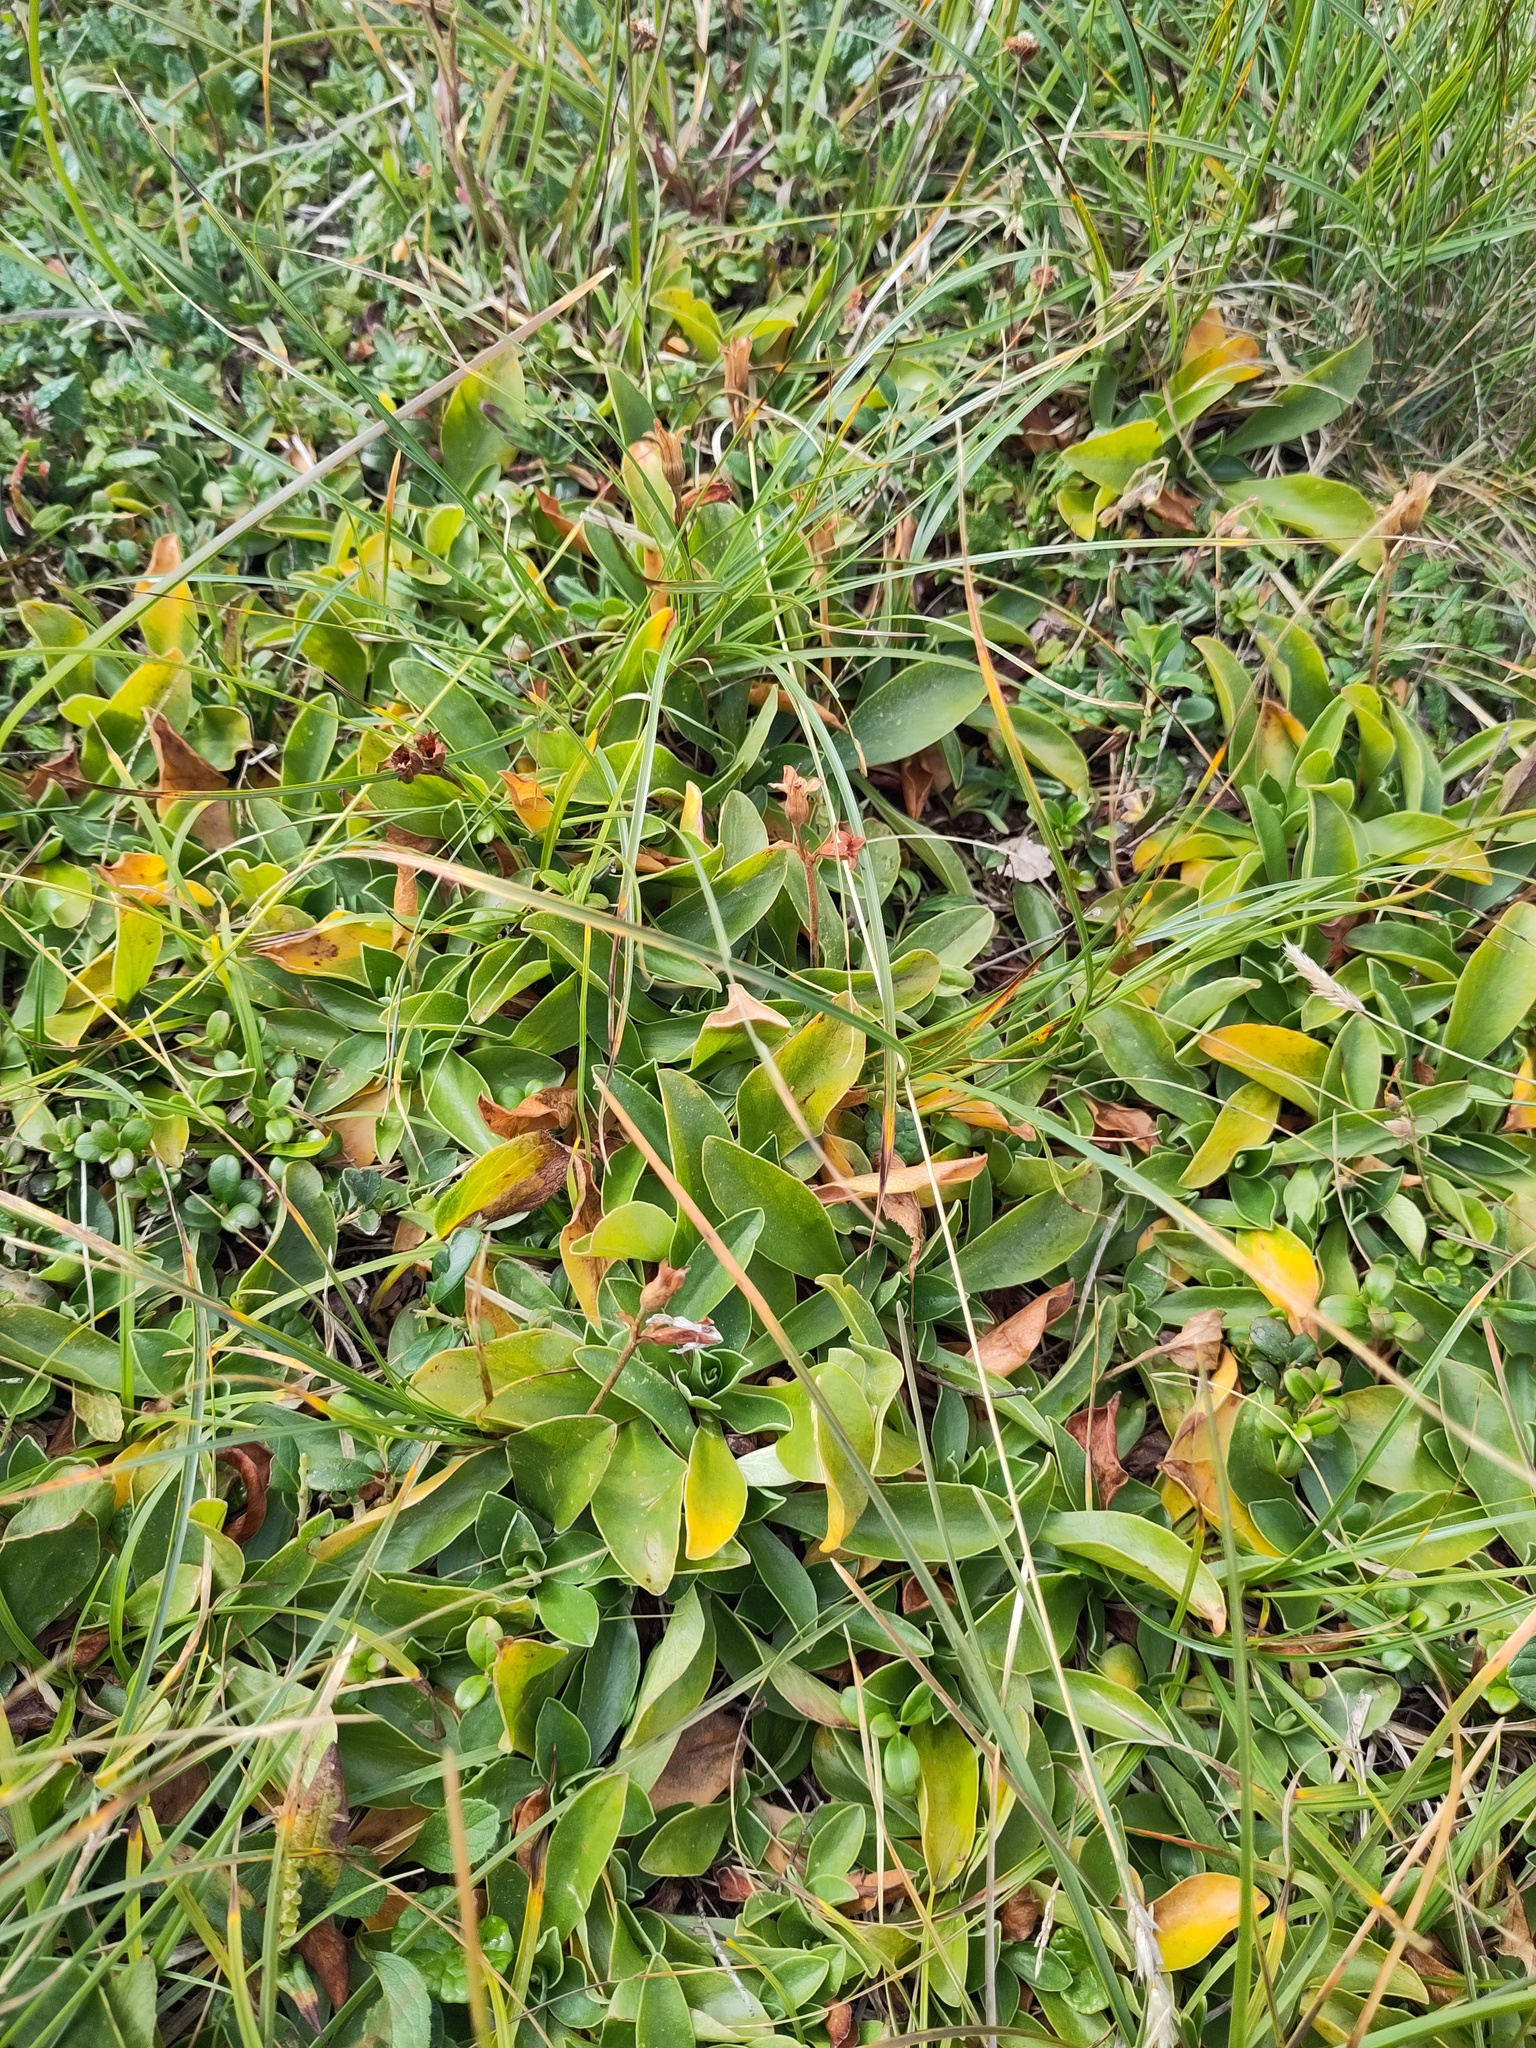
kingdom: Plantae
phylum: Tracheophyta
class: Magnoliopsida
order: Ericales
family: Primulaceae
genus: Primula
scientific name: Primula clusiana
